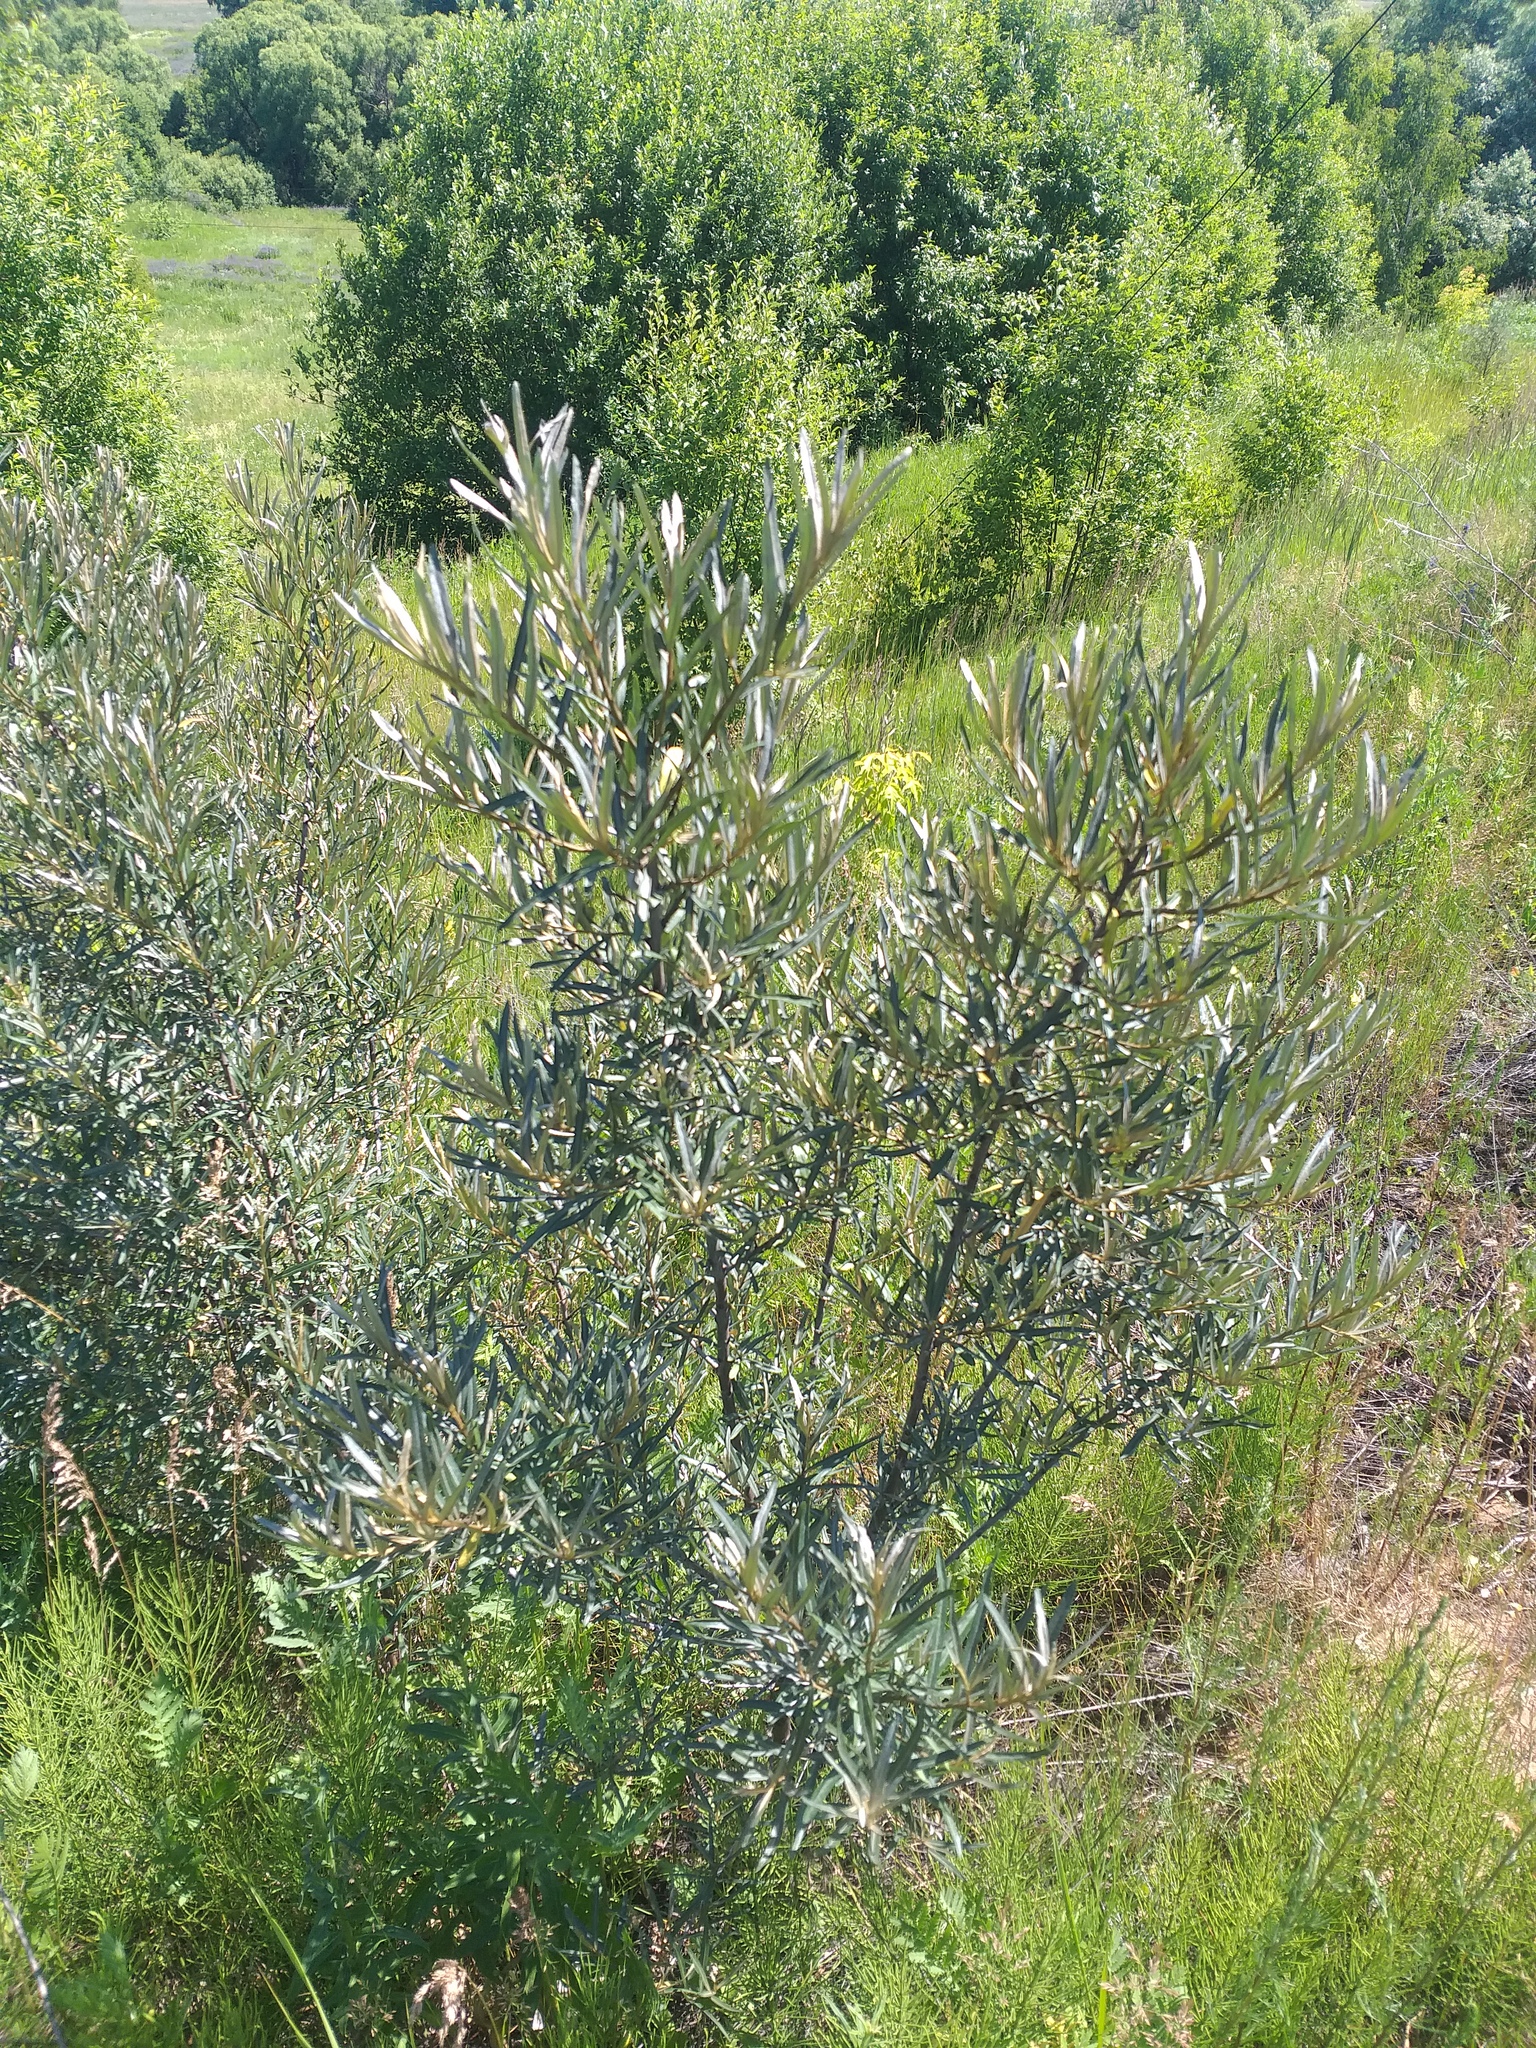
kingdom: Plantae
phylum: Tracheophyta
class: Magnoliopsida
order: Rosales
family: Elaeagnaceae
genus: Hippophae
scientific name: Hippophae rhamnoides
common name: Sea-buckthorn
